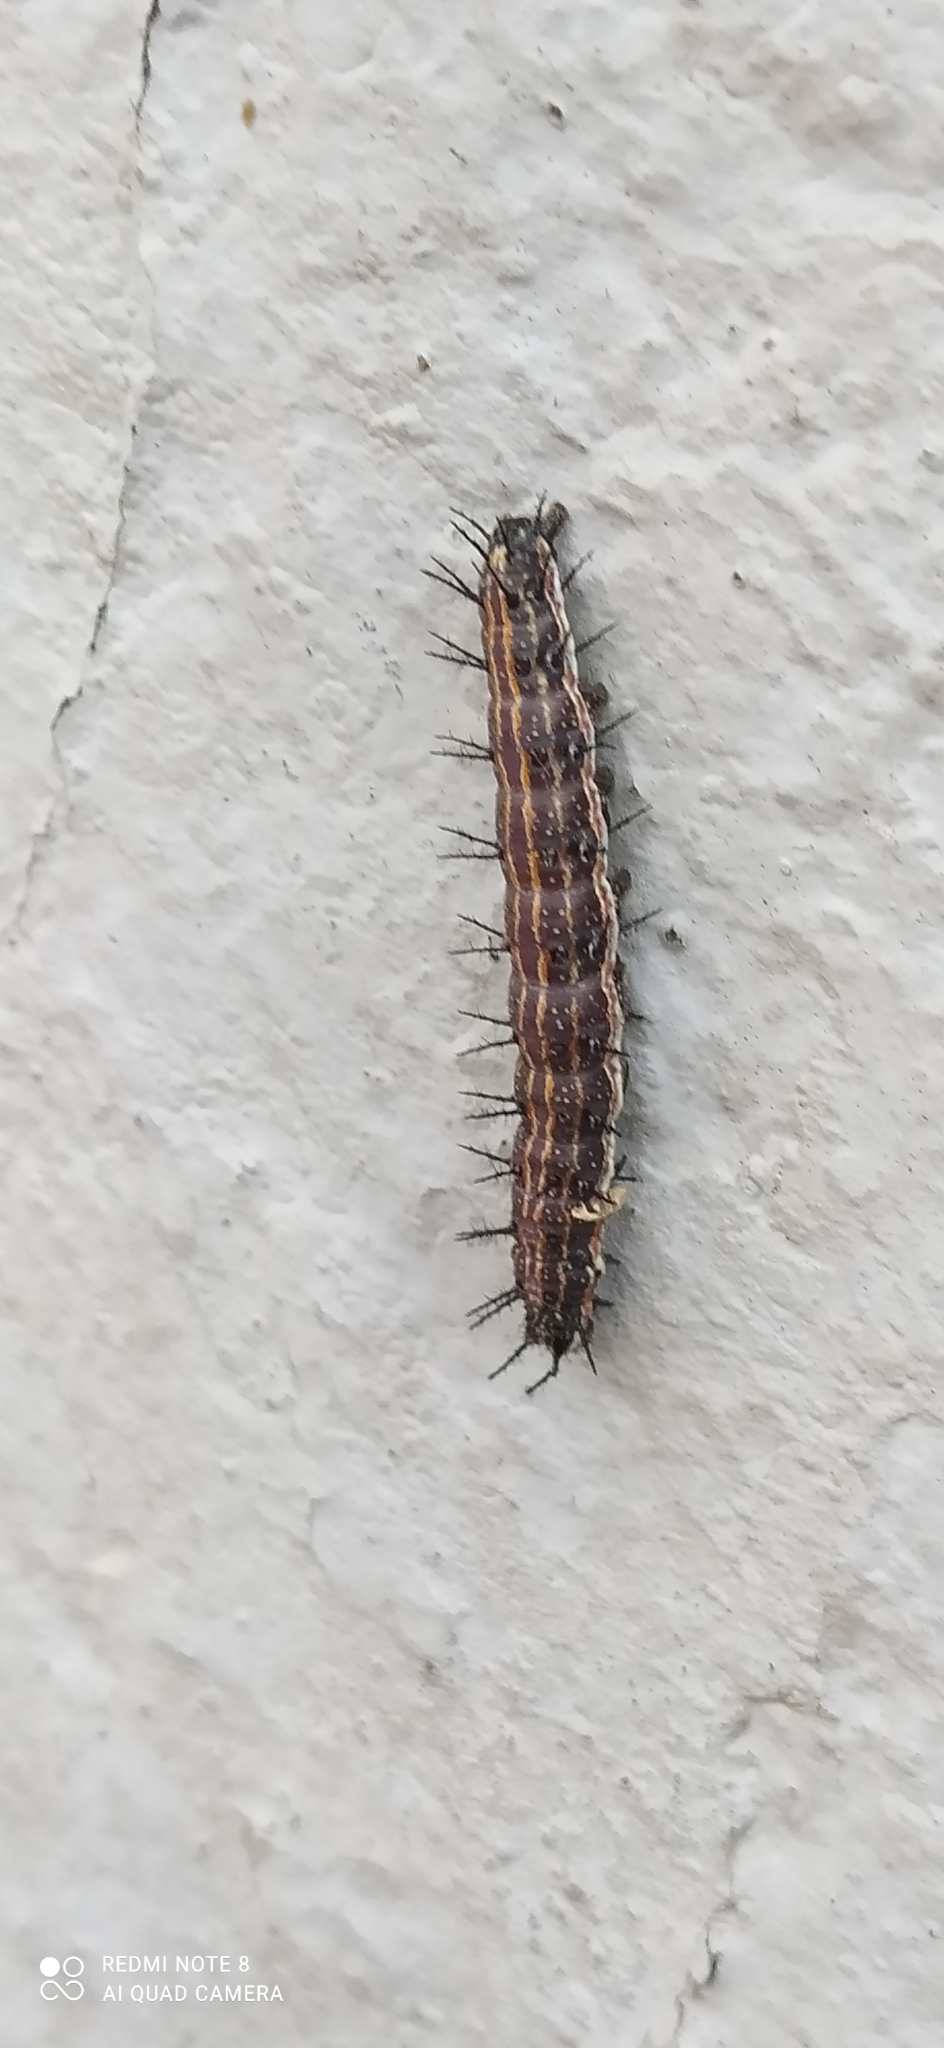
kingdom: Animalia
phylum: Arthropoda
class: Insecta
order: Lepidoptera
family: Nymphalidae
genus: Dione
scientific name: Dione vanillae
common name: Gulf fritillary
